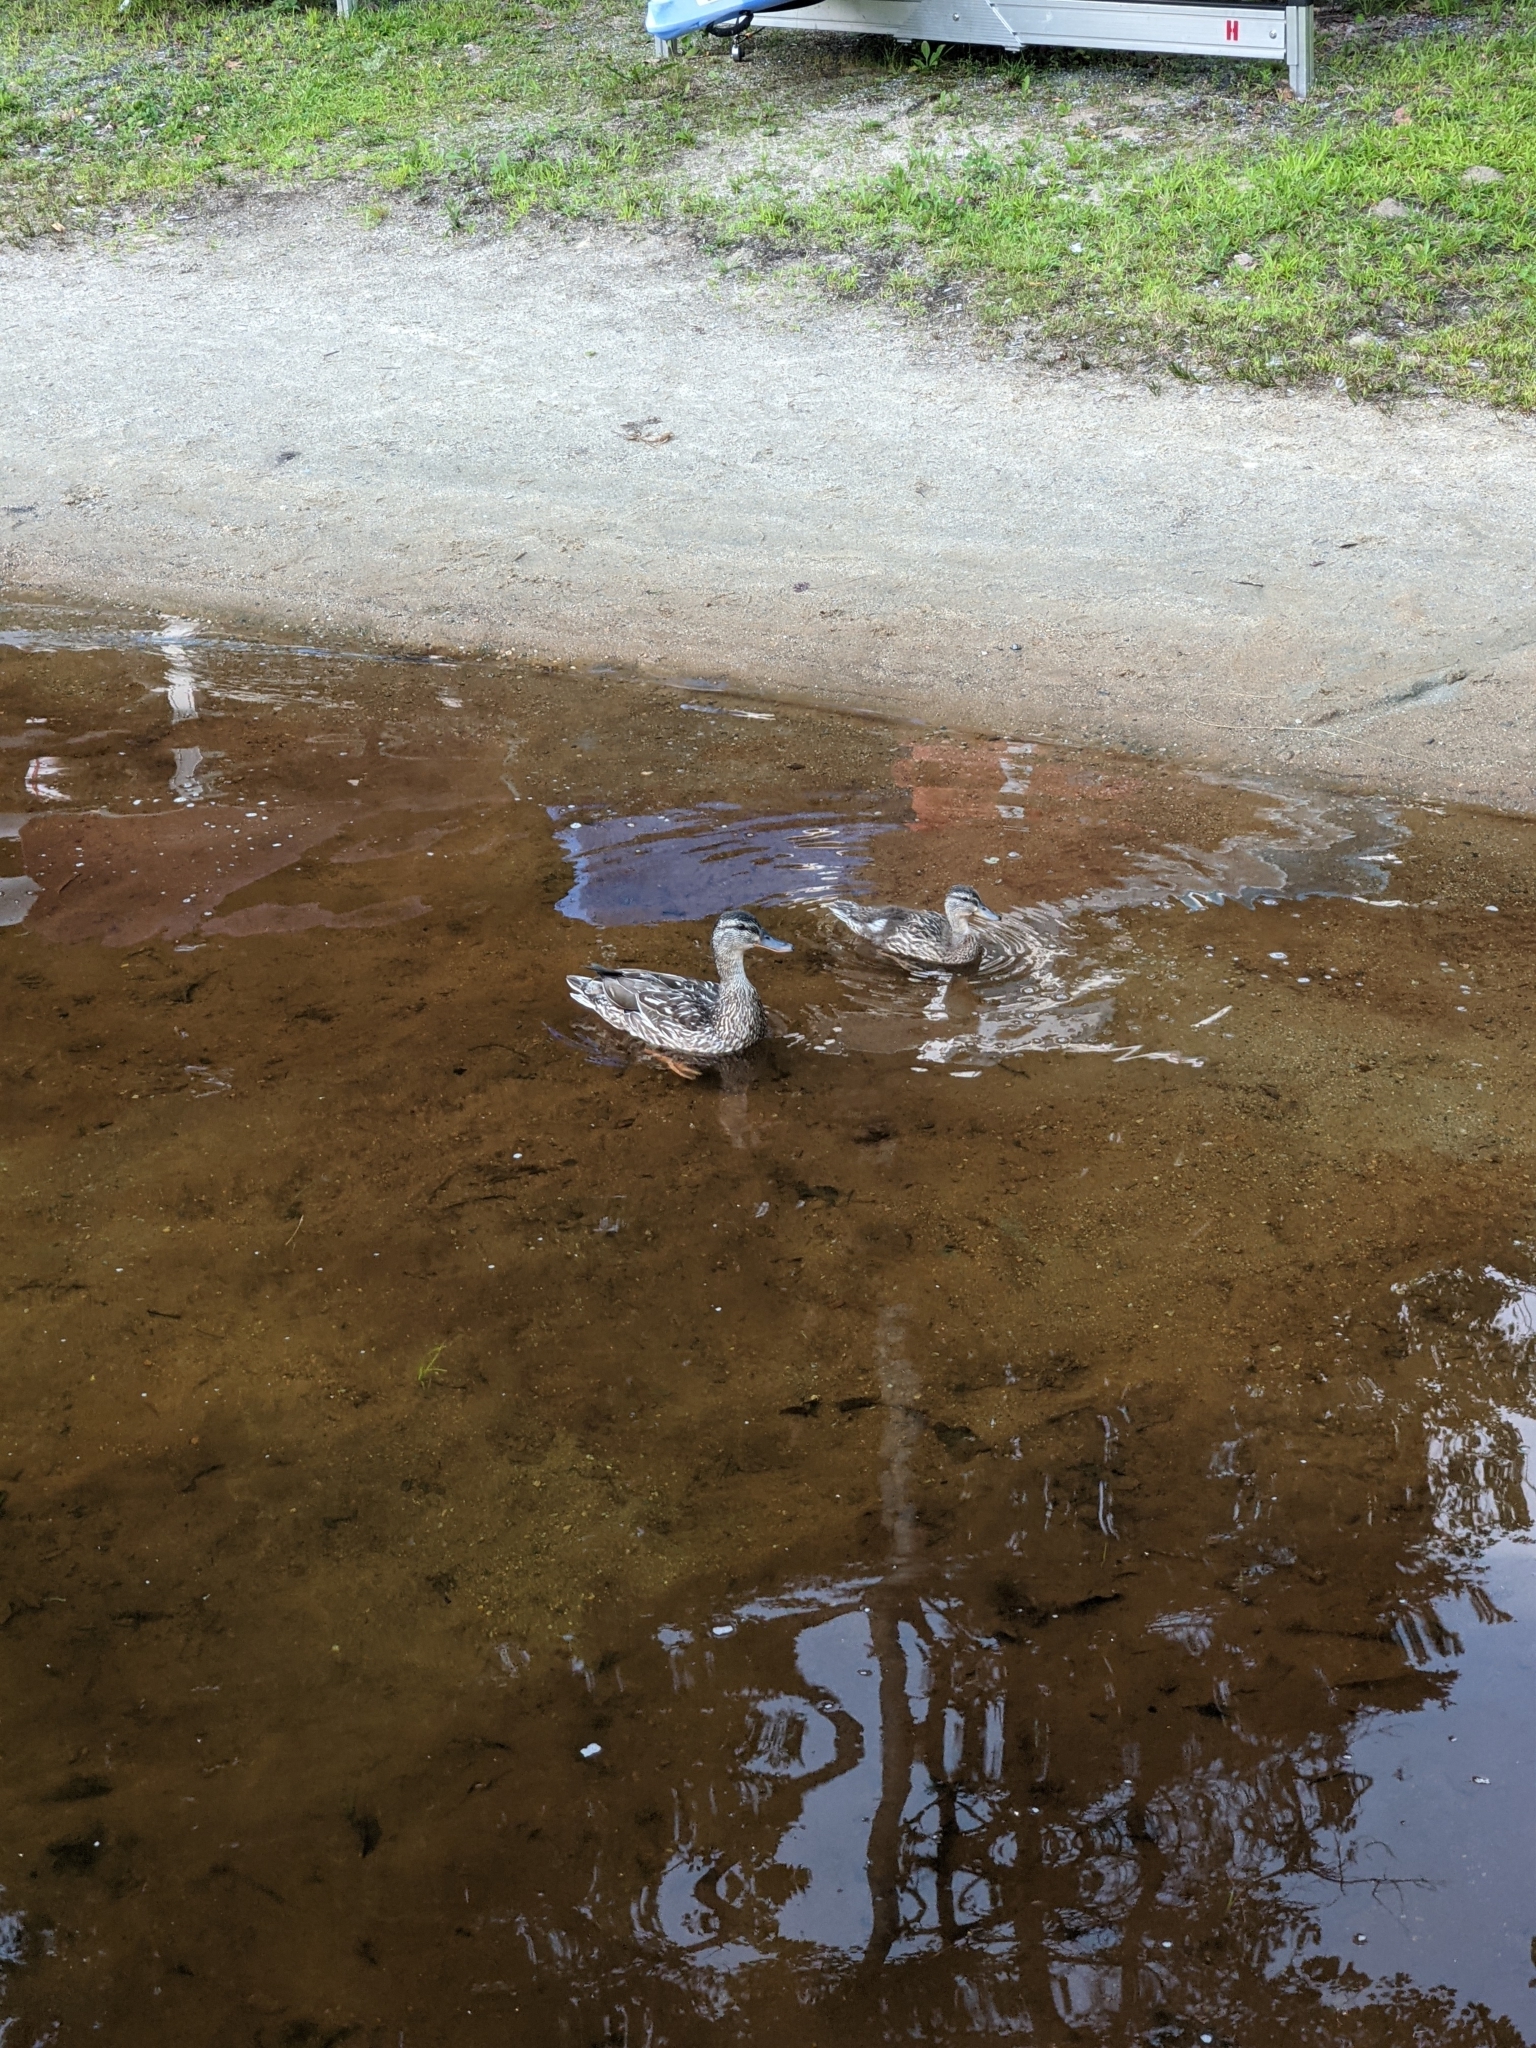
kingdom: Animalia
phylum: Chordata
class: Aves
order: Anseriformes
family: Anatidae
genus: Anas
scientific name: Anas platyrhynchos
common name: Mallard
